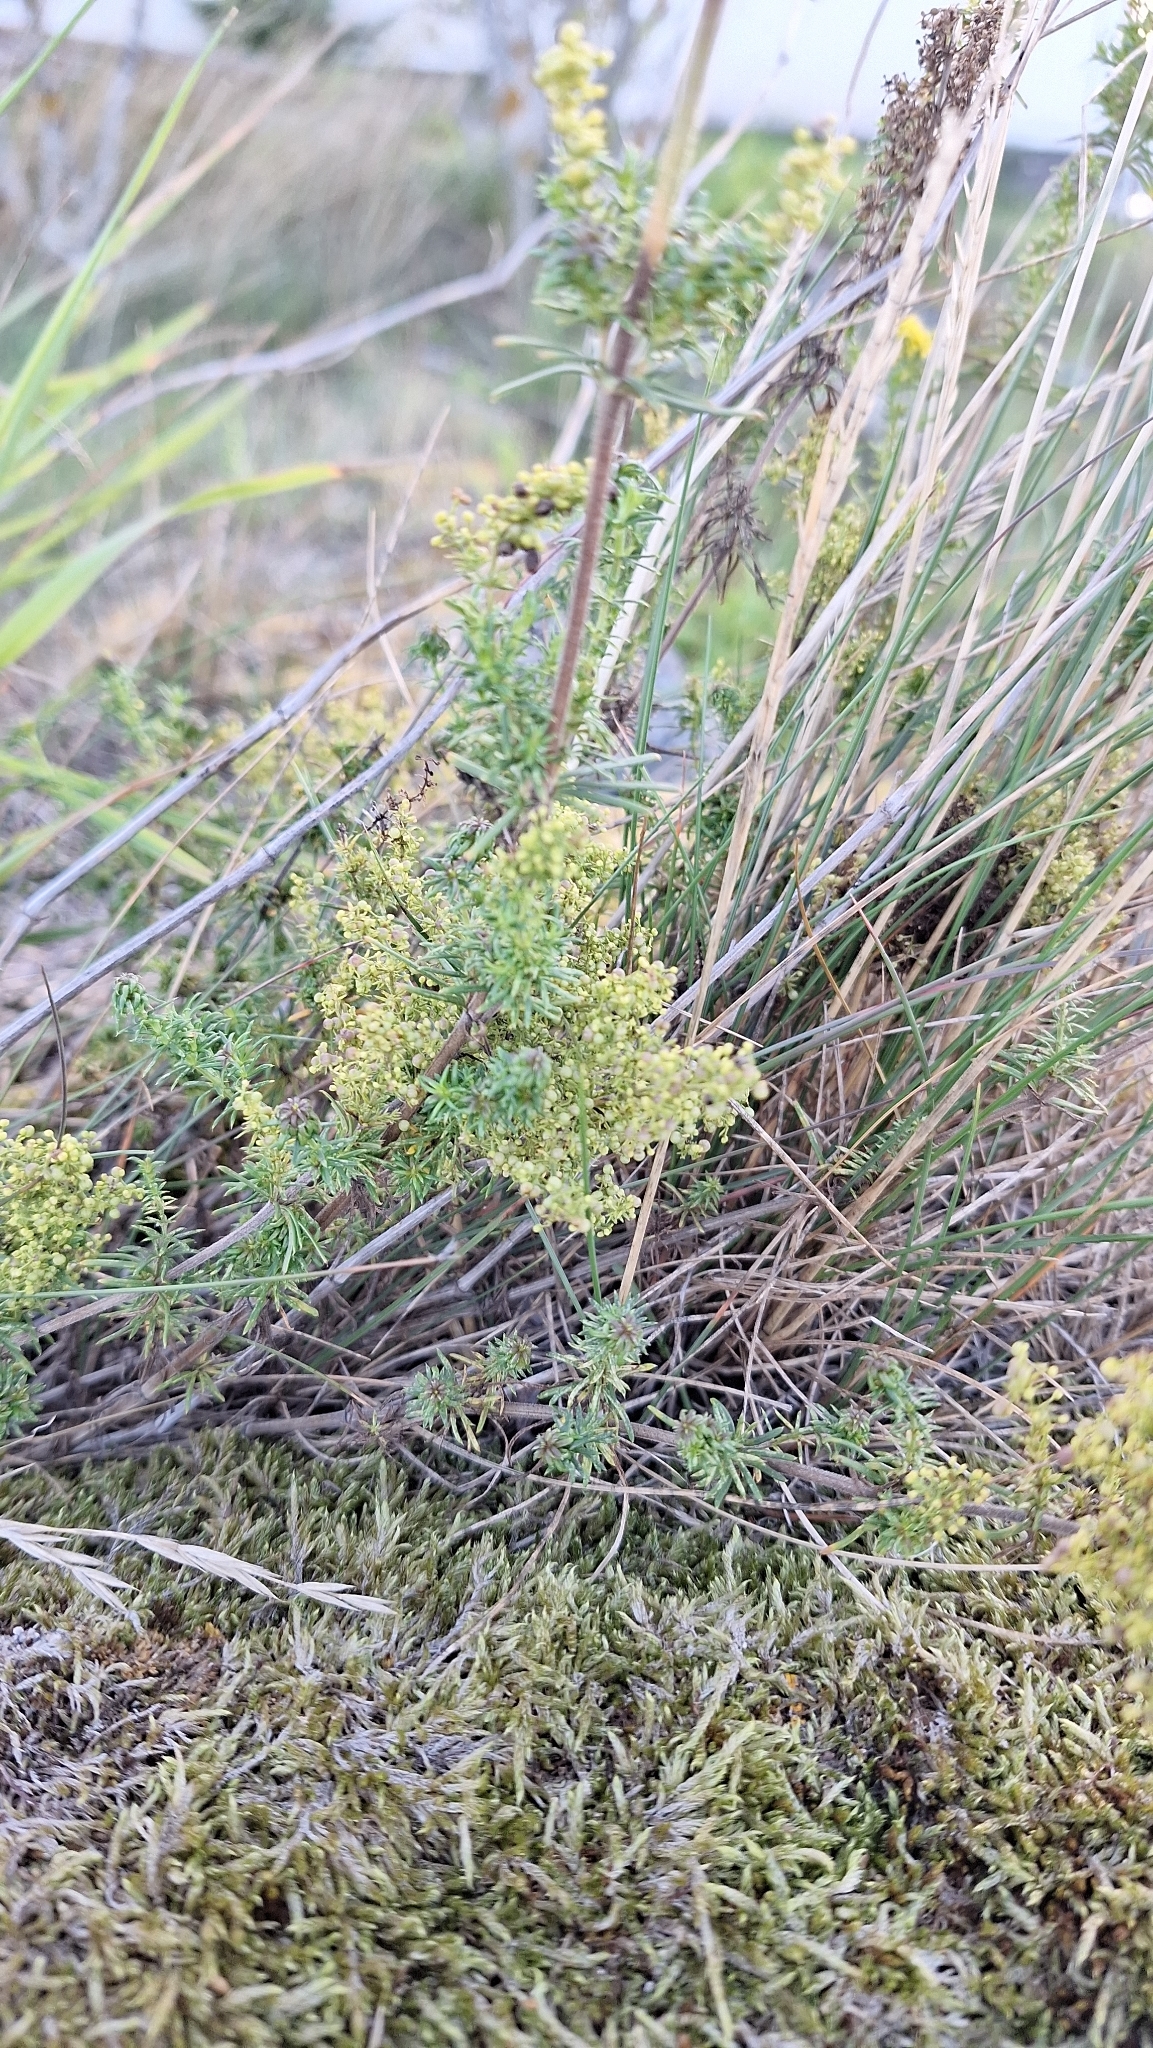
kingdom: Plantae
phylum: Tracheophyta
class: Magnoliopsida
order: Gentianales
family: Rubiaceae
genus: Galium
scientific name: Galium verum
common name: Lady's bedstraw
